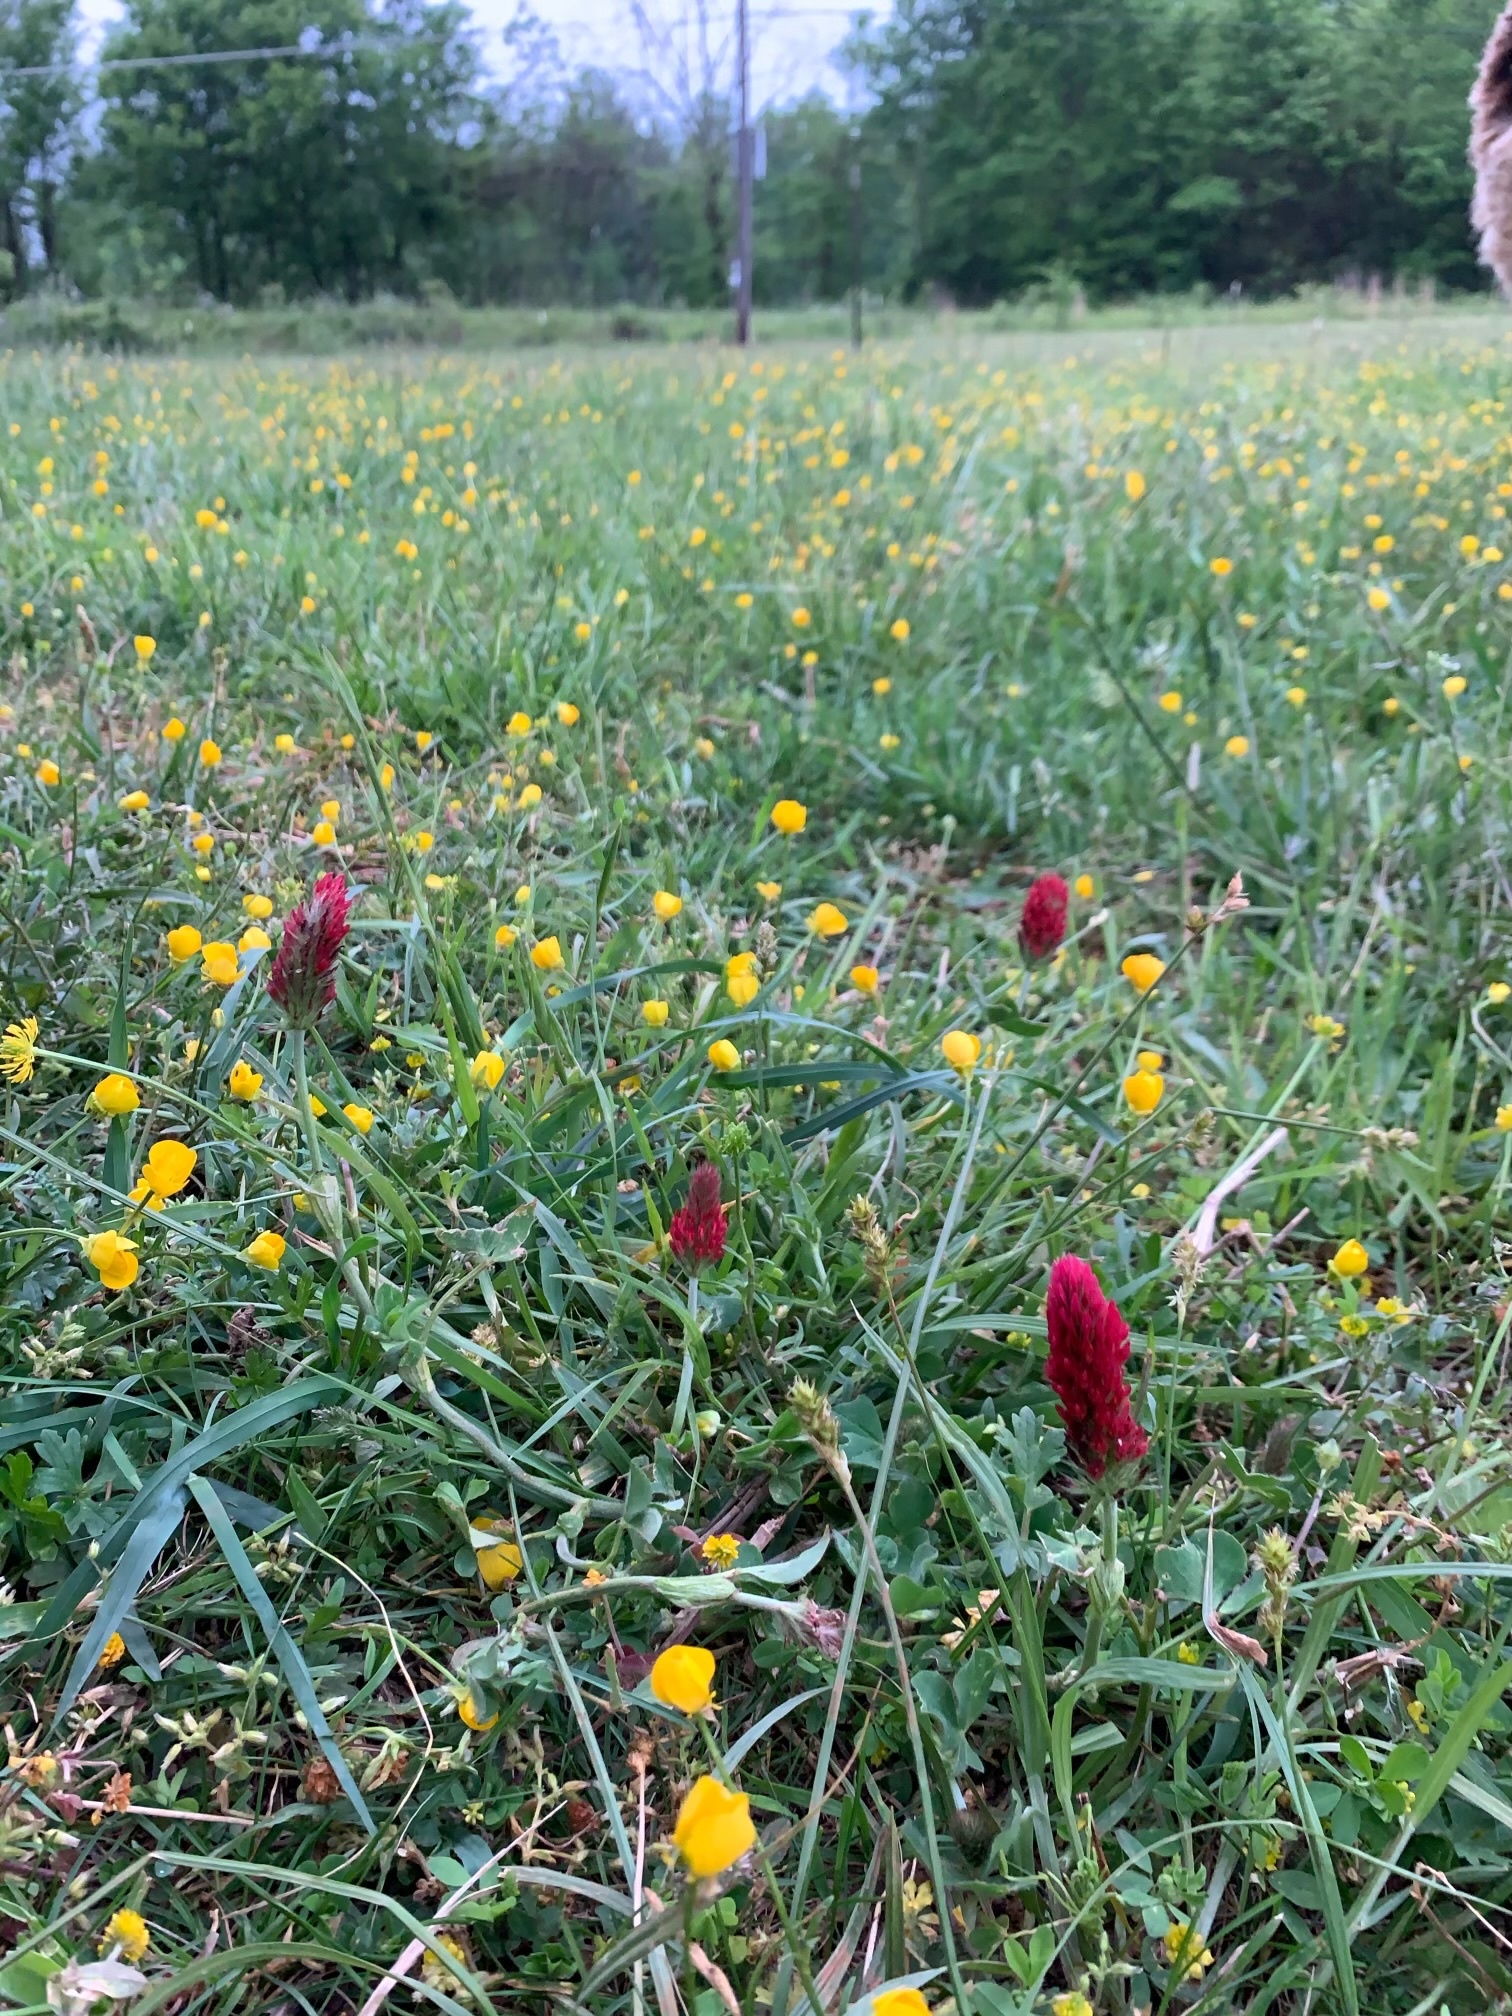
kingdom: Plantae
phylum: Tracheophyta
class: Magnoliopsida
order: Fabales
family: Fabaceae
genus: Trifolium
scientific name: Trifolium incarnatum
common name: Crimson clover
